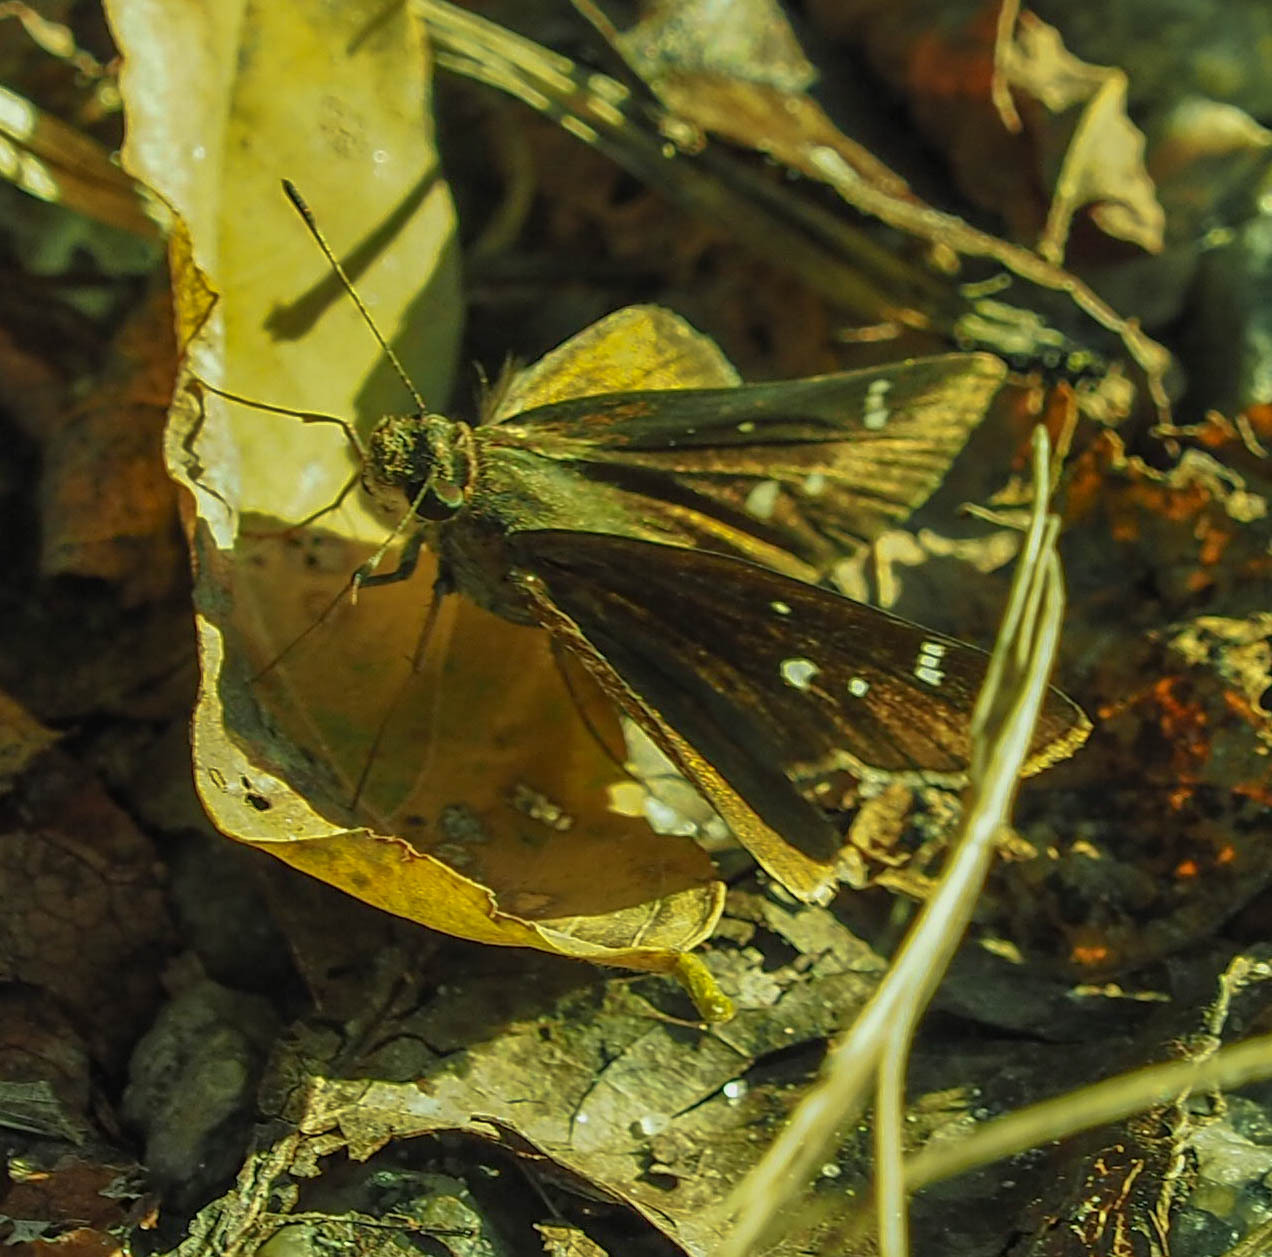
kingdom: Animalia
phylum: Arthropoda
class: Insecta
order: Lepidoptera
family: Hesperiidae
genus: Lerema
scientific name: Lerema accius
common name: Clouded skipper
